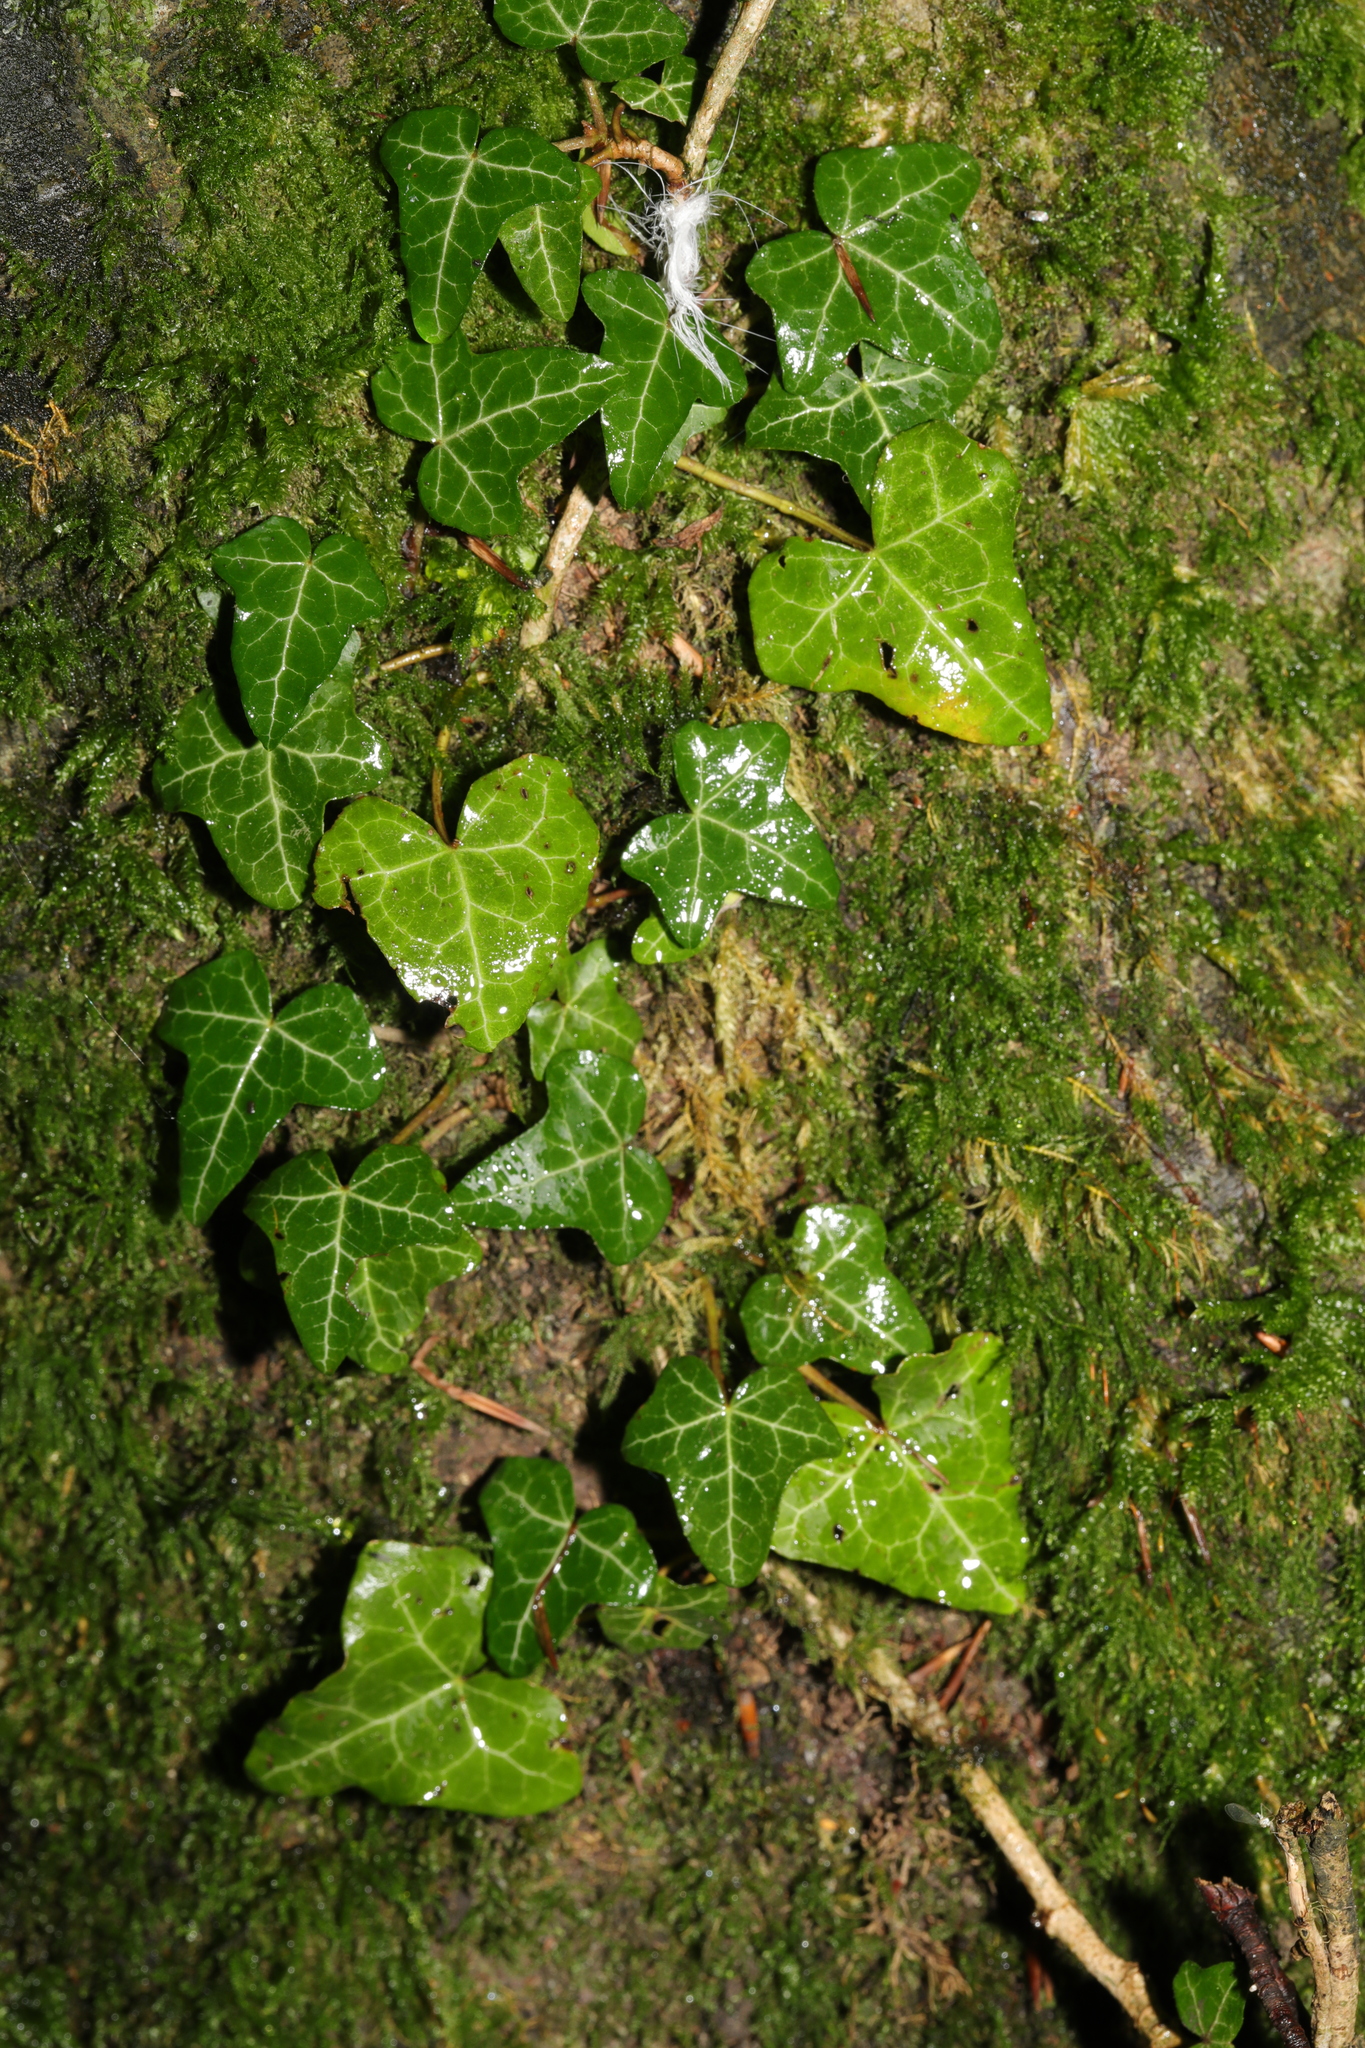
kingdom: Plantae
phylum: Tracheophyta
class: Magnoliopsida
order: Apiales
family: Araliaceae
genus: Hedera
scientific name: Hedera helix
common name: Ivy
